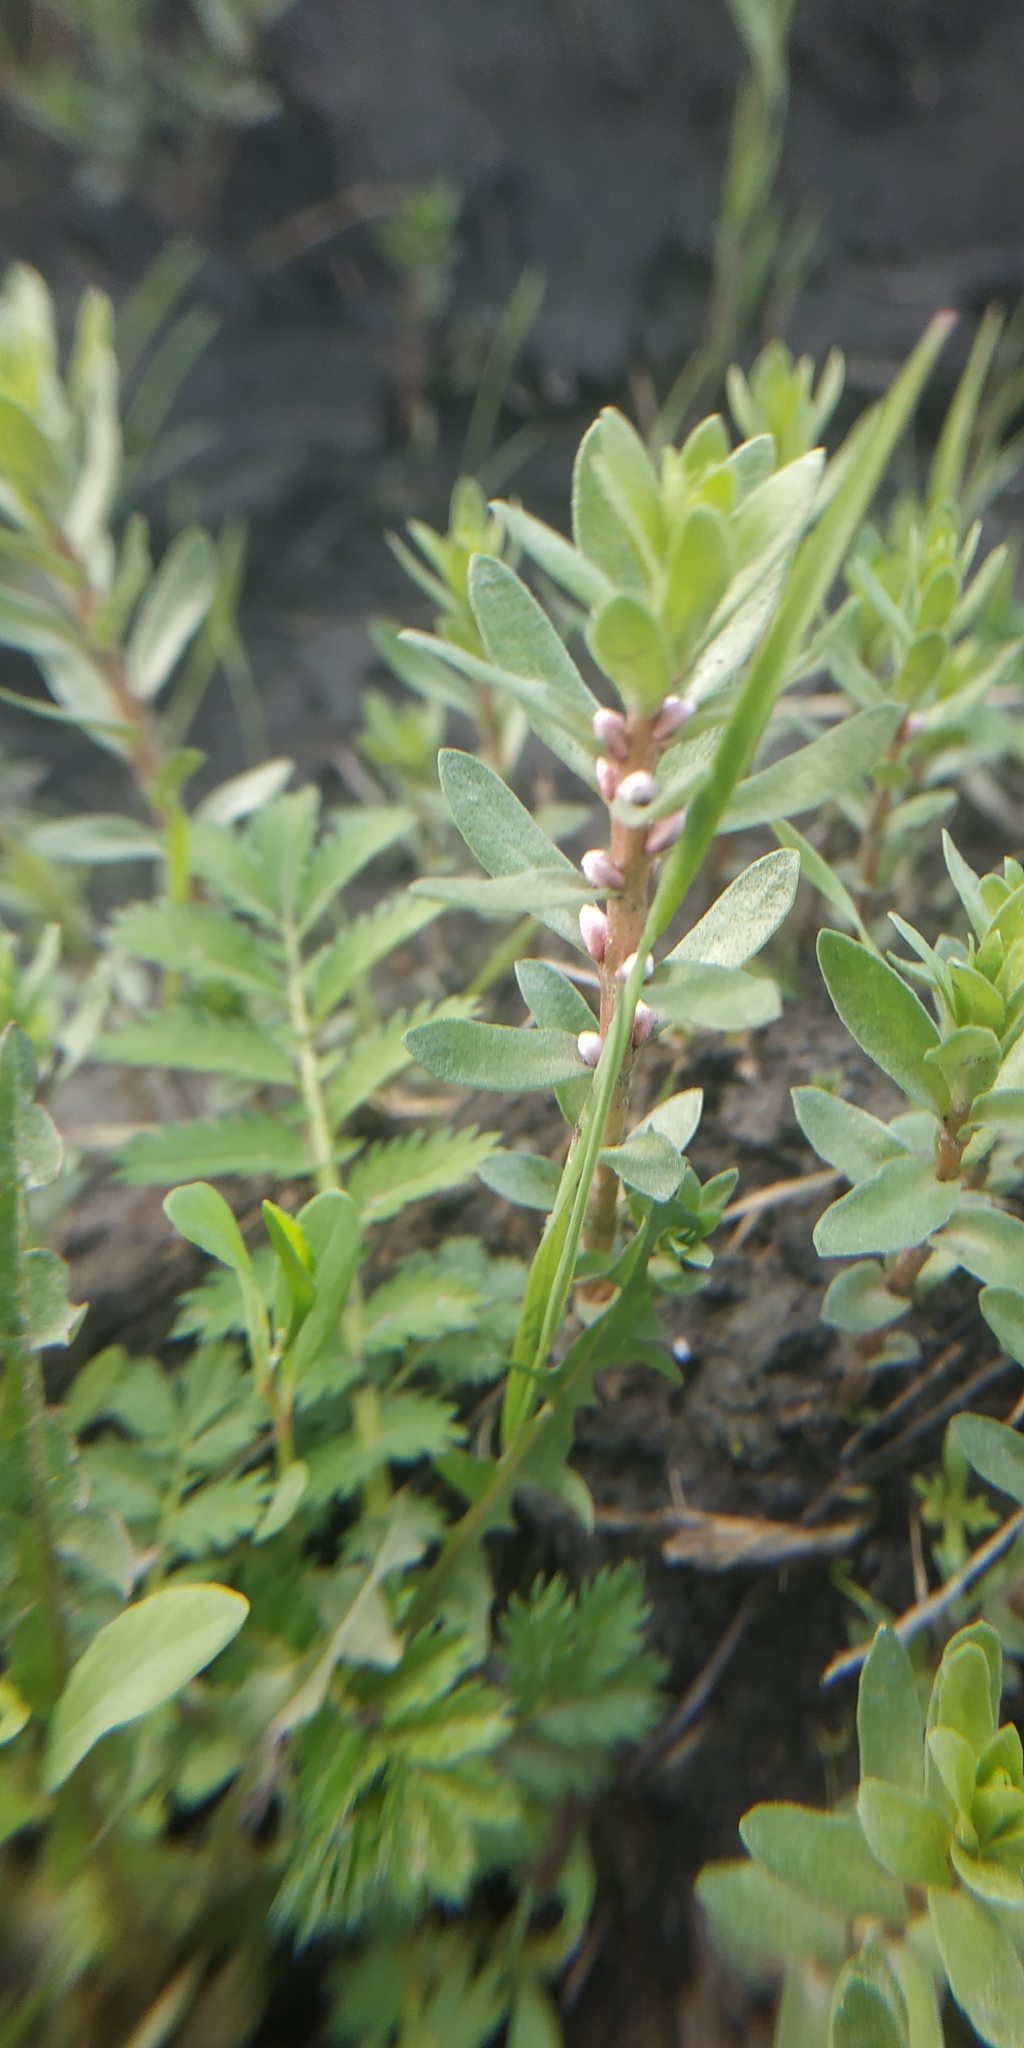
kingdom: Plantae
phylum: Tracheophyta
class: Magnoliopsida
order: Ericales
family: Primulaceae
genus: Lysimachia
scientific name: Lysimachia maritima
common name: Sea milkwort
